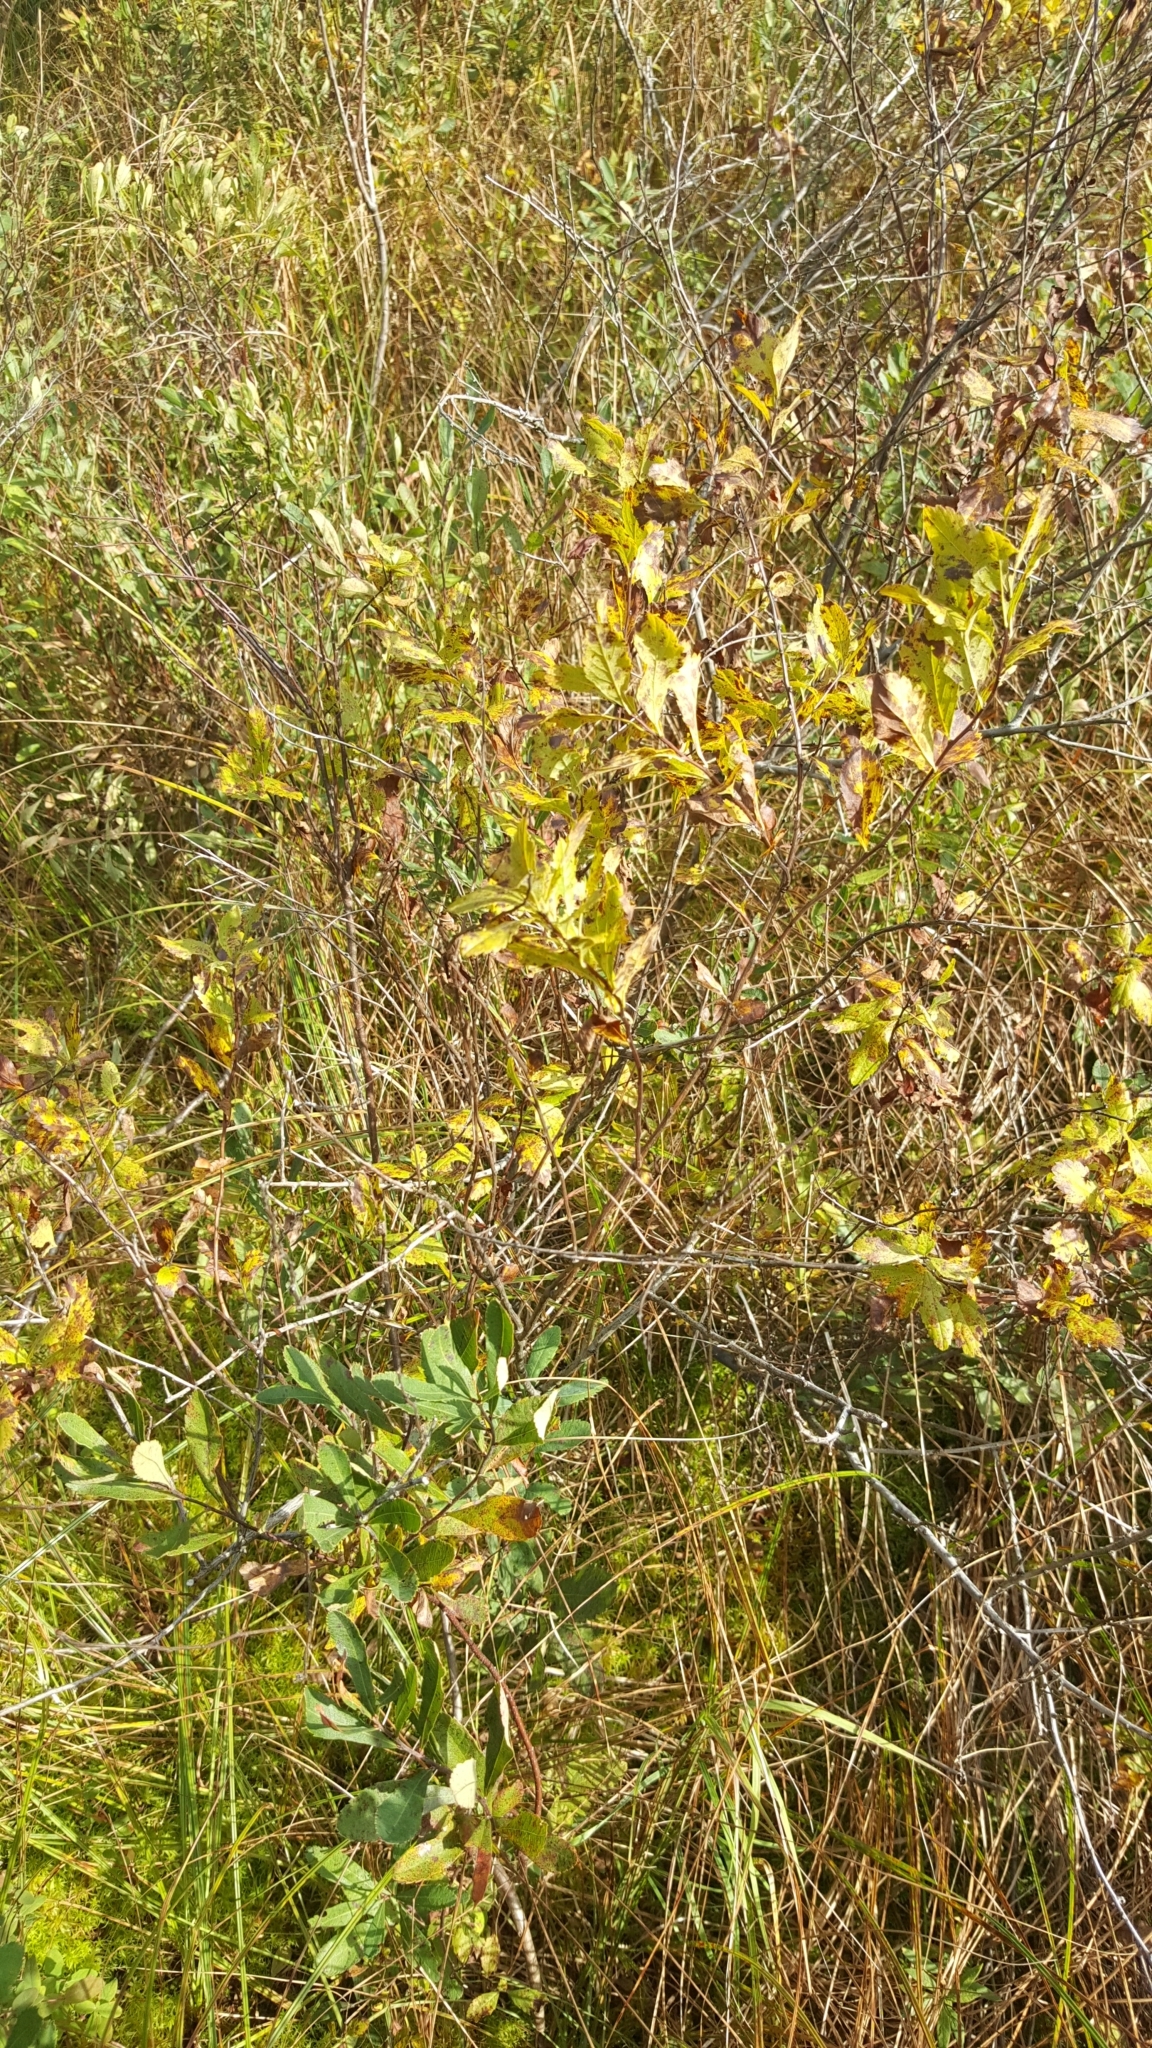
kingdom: Plantae
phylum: Tracheophyta
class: Magnoliopsida
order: Rosales
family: Rosaceae
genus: Spiraea
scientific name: Spiraea alba
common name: Pale bridewort
